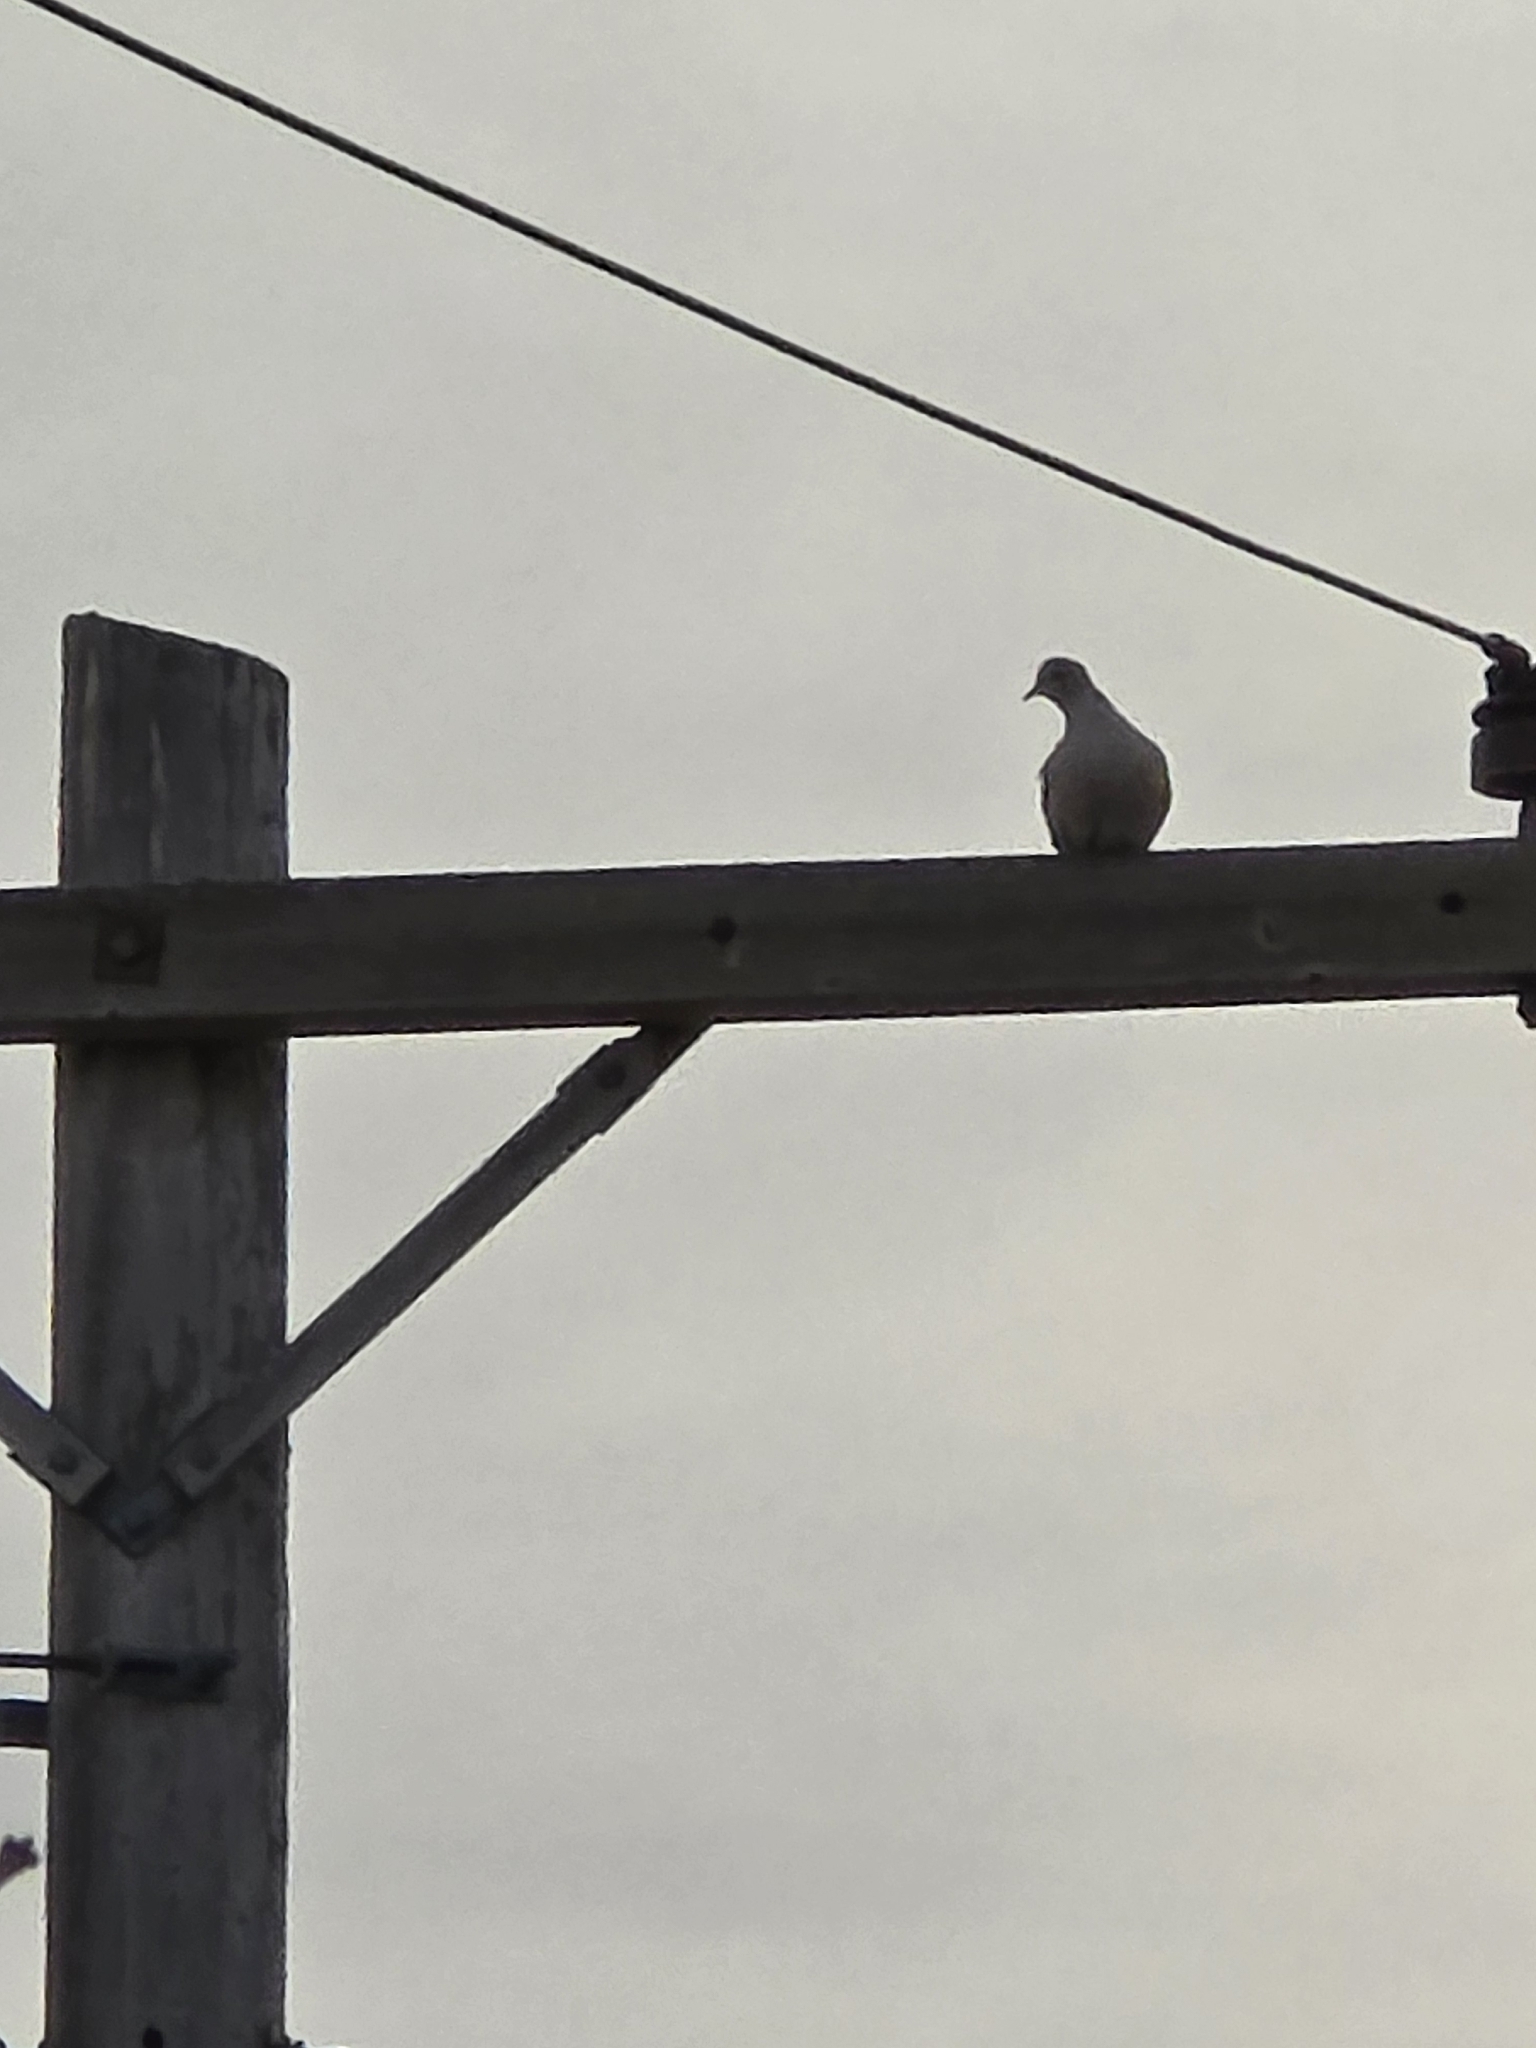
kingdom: Animalia
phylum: Chordata
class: Aves
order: Columbiformes
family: Columbidae
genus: Streptopelia
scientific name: Streptopelia decaocto
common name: Eurasian collared dove
